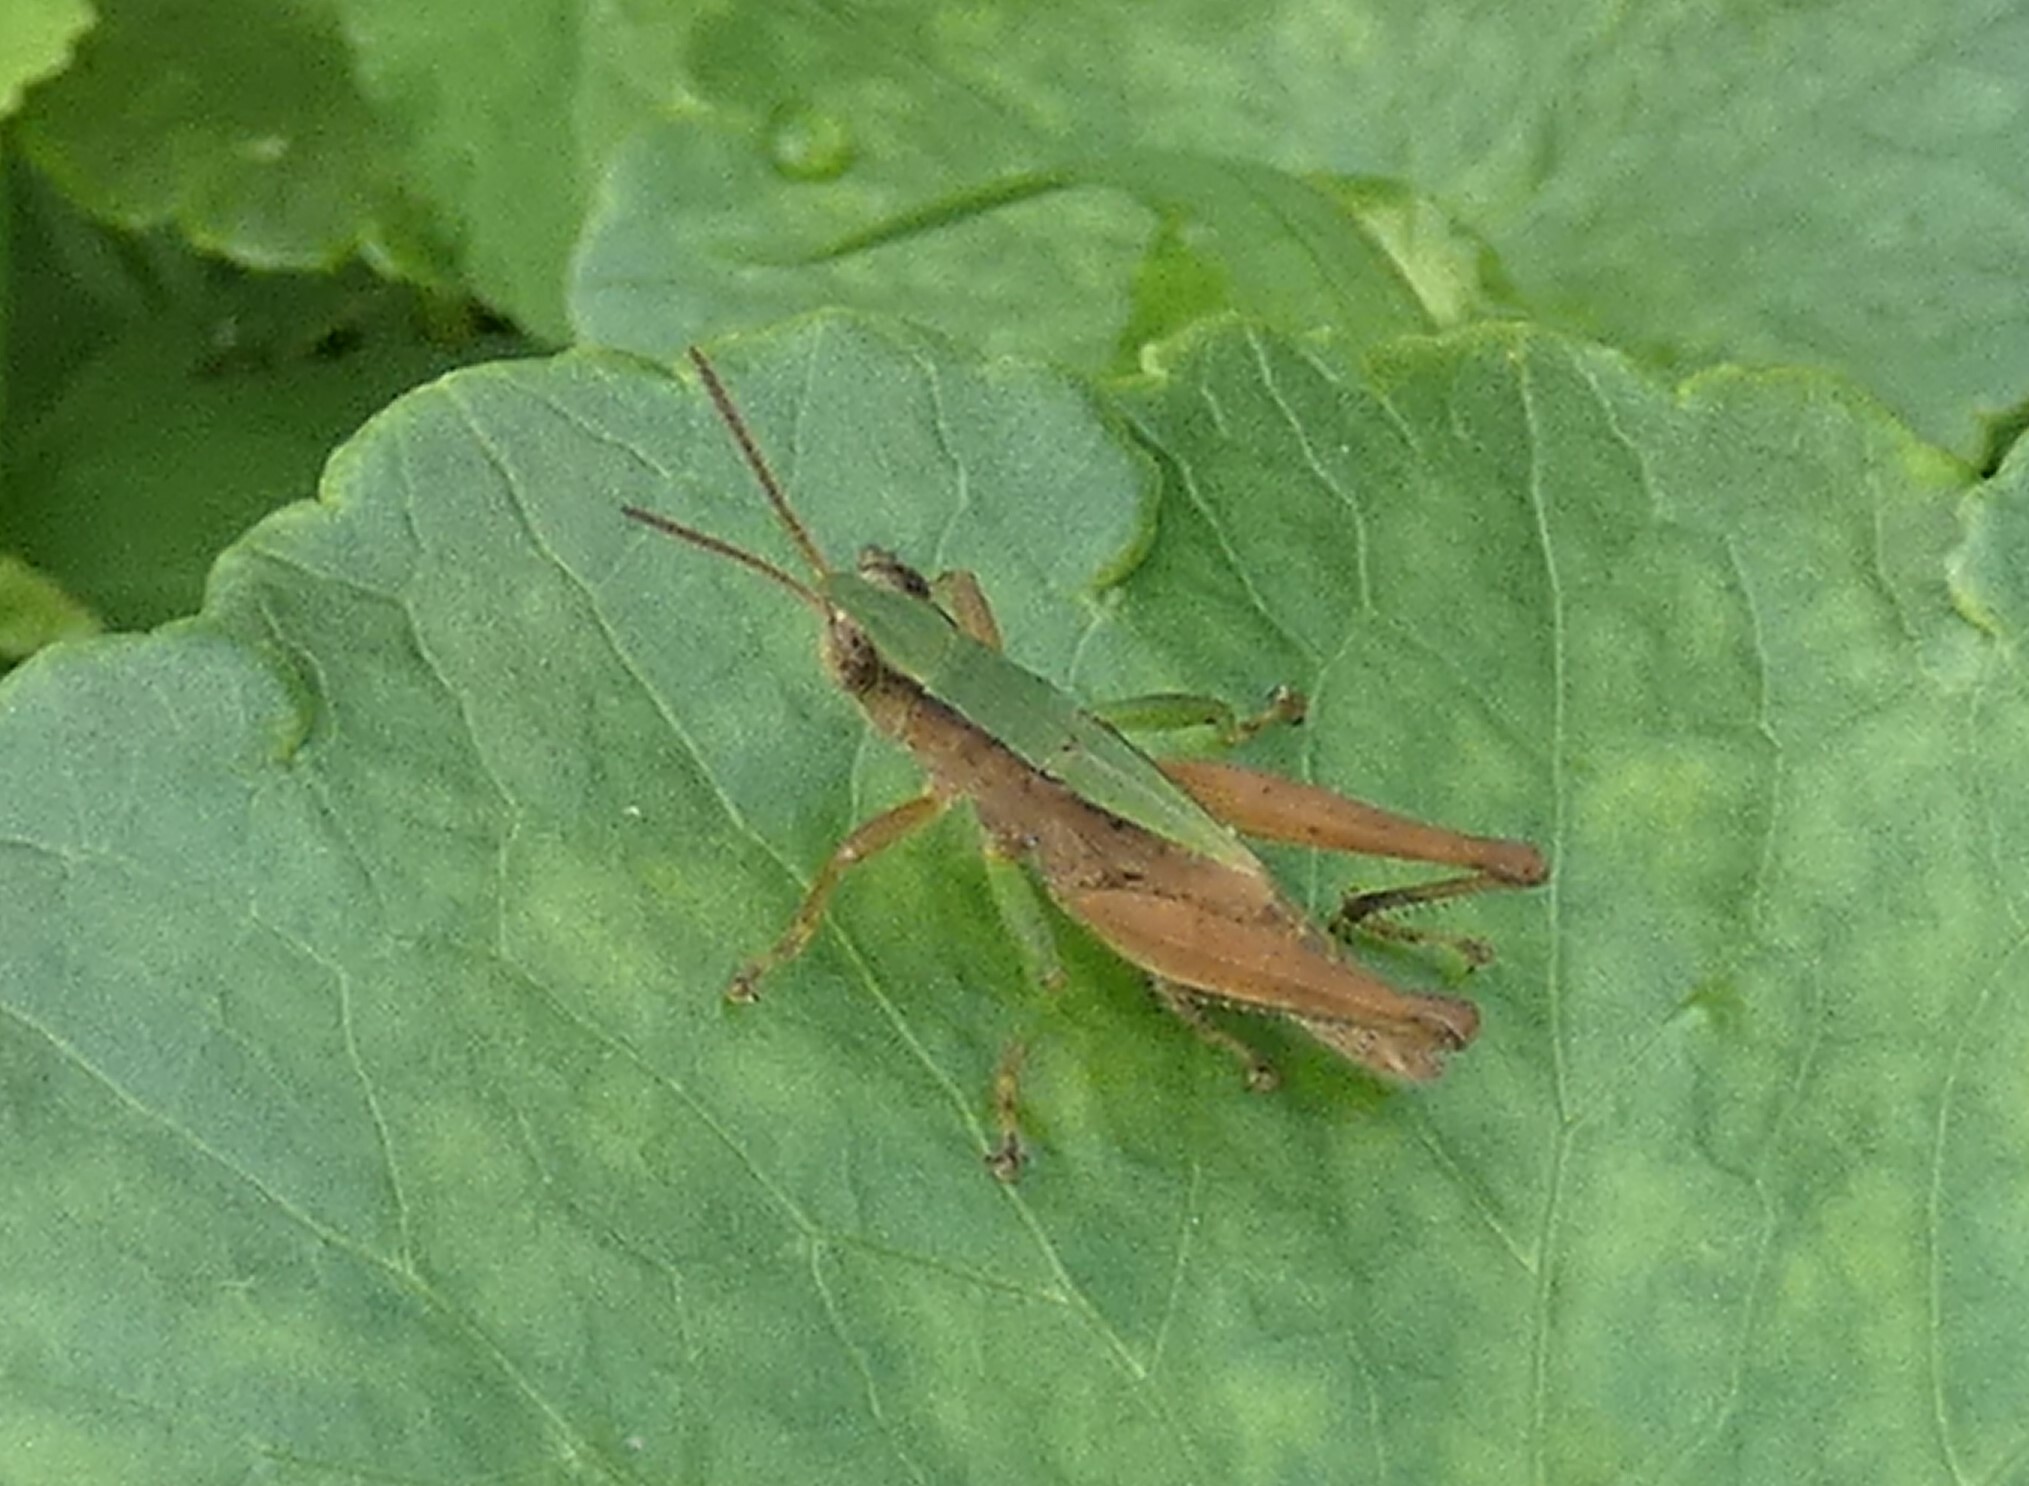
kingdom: Animalia
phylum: Arthropoda
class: Insecta
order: Orthoptera
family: Acrididae
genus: Dichromorpha
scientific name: Dichromorpha viridis
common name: Short-winged green grasshopper
